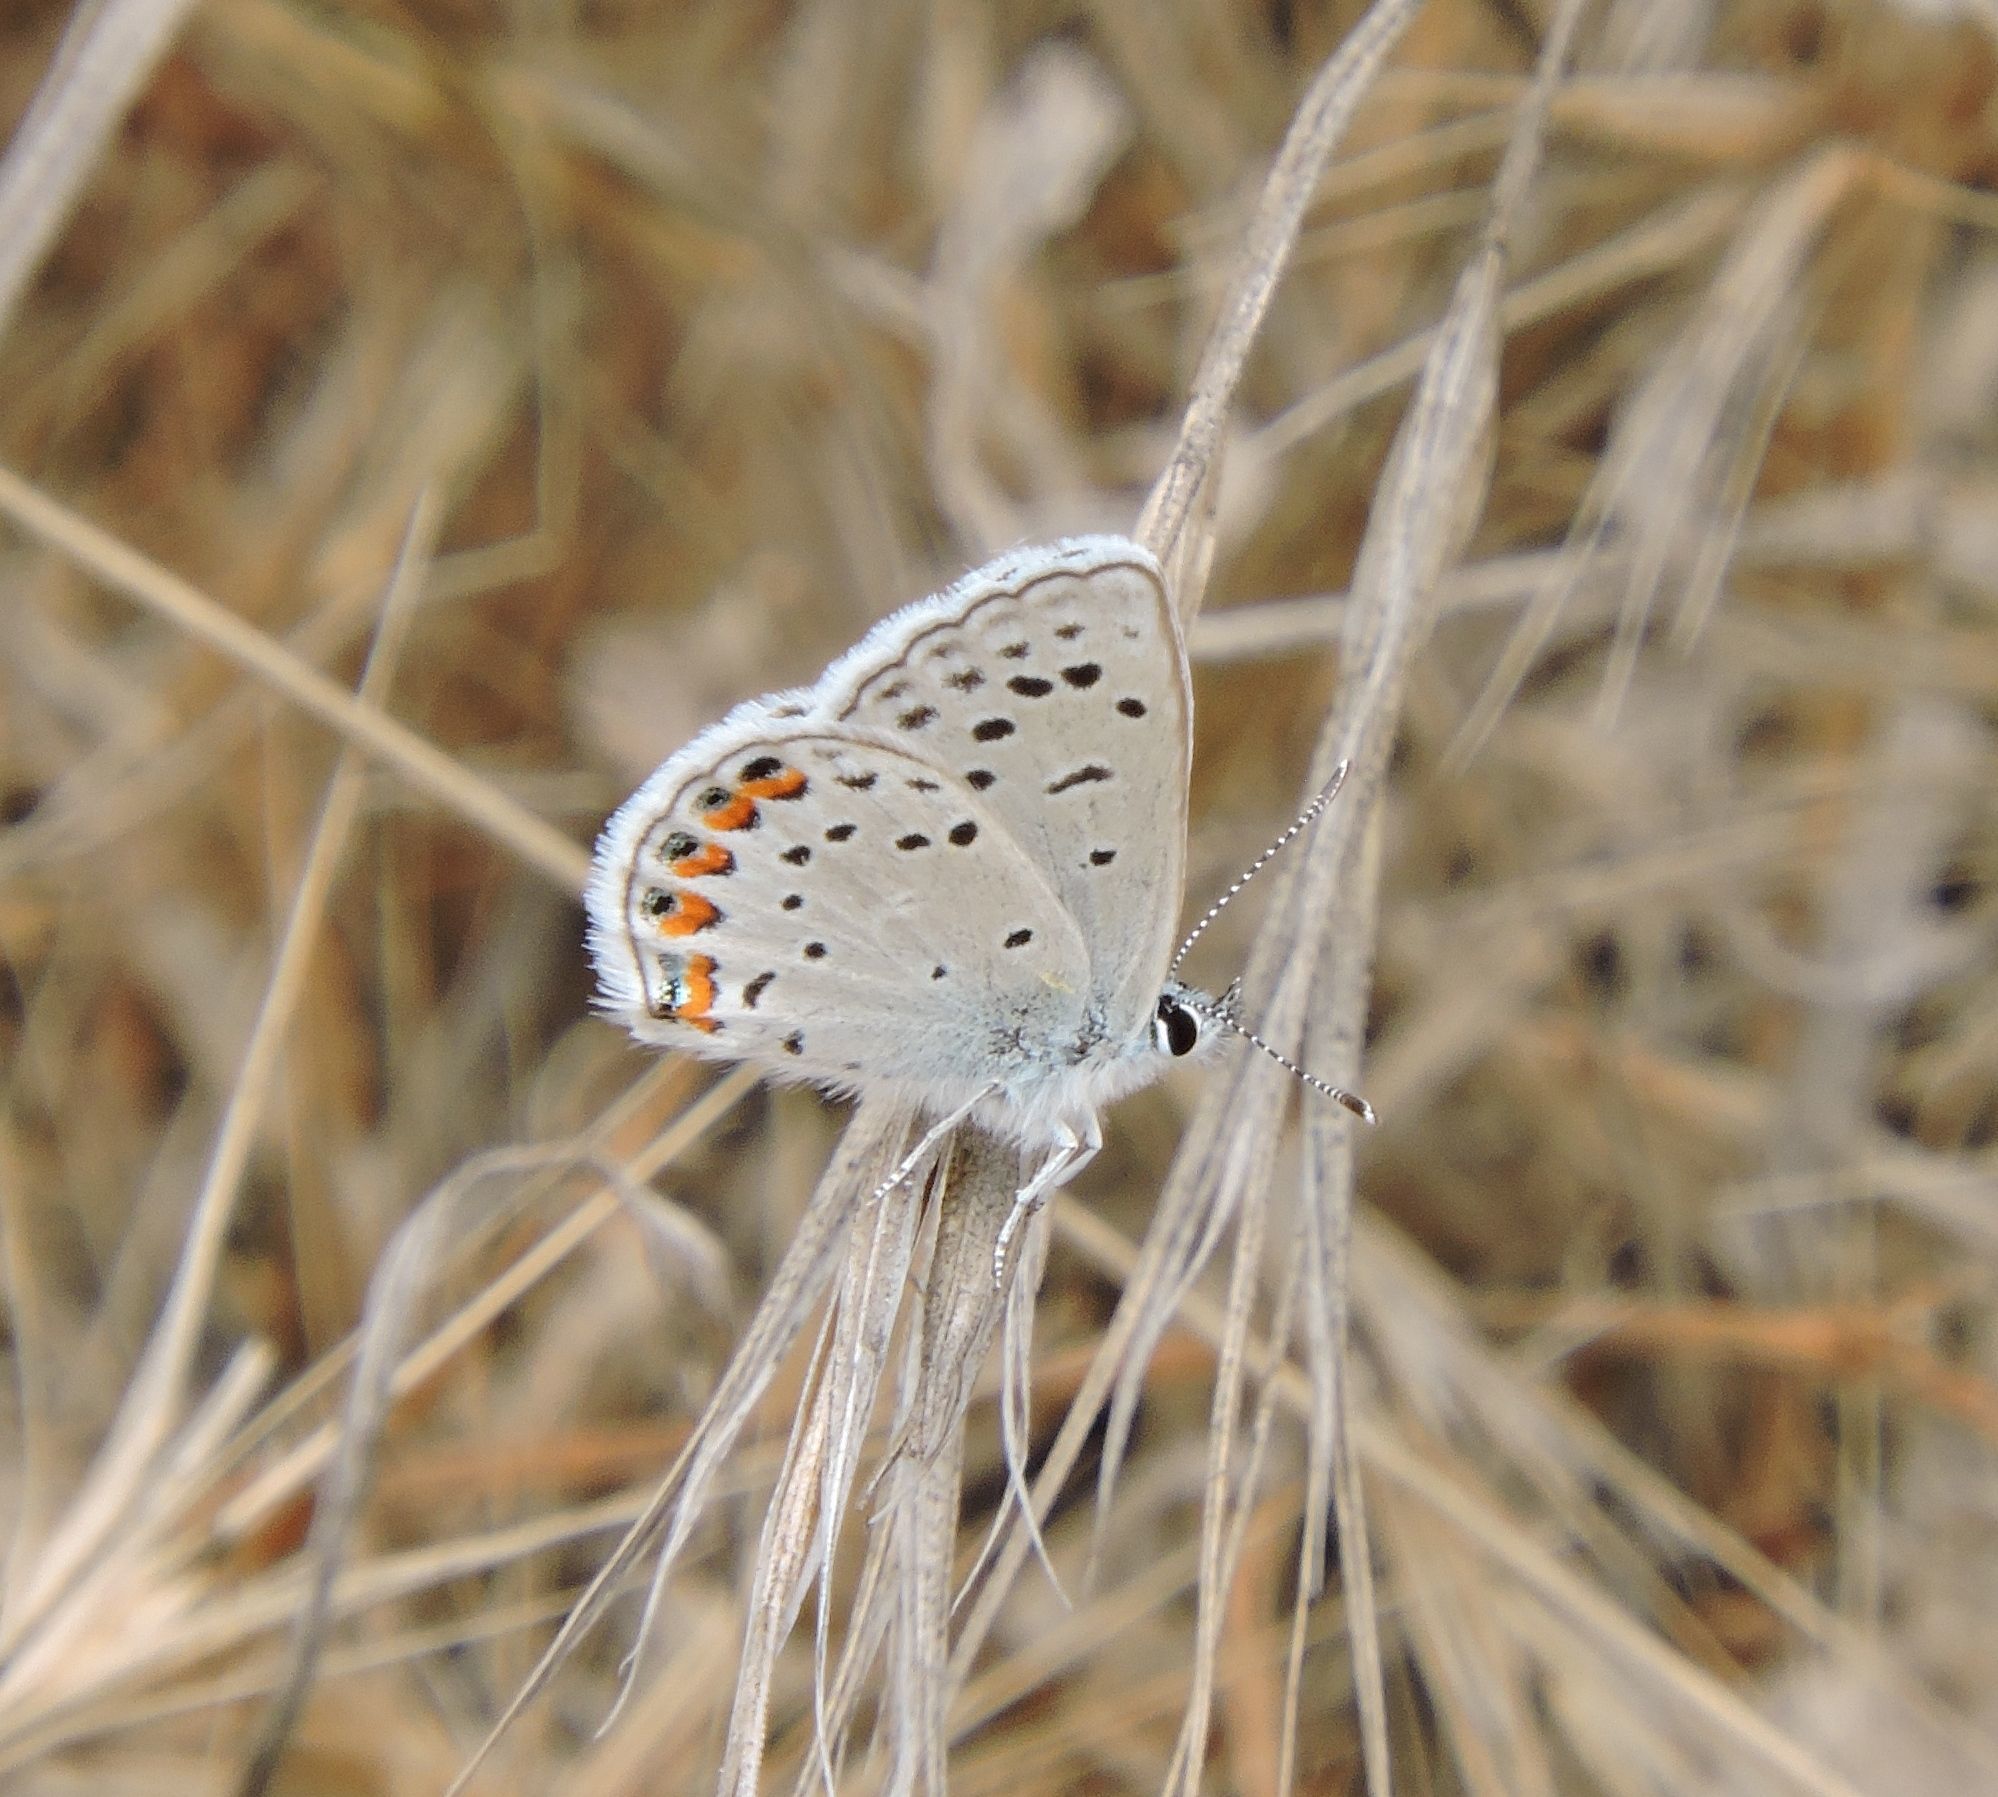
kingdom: Animalia
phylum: Arthropoda
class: Insecta
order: Lepidoptera
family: Lycaenidae
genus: Icaricia
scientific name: Icaricia acmon
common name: Acmon blue
